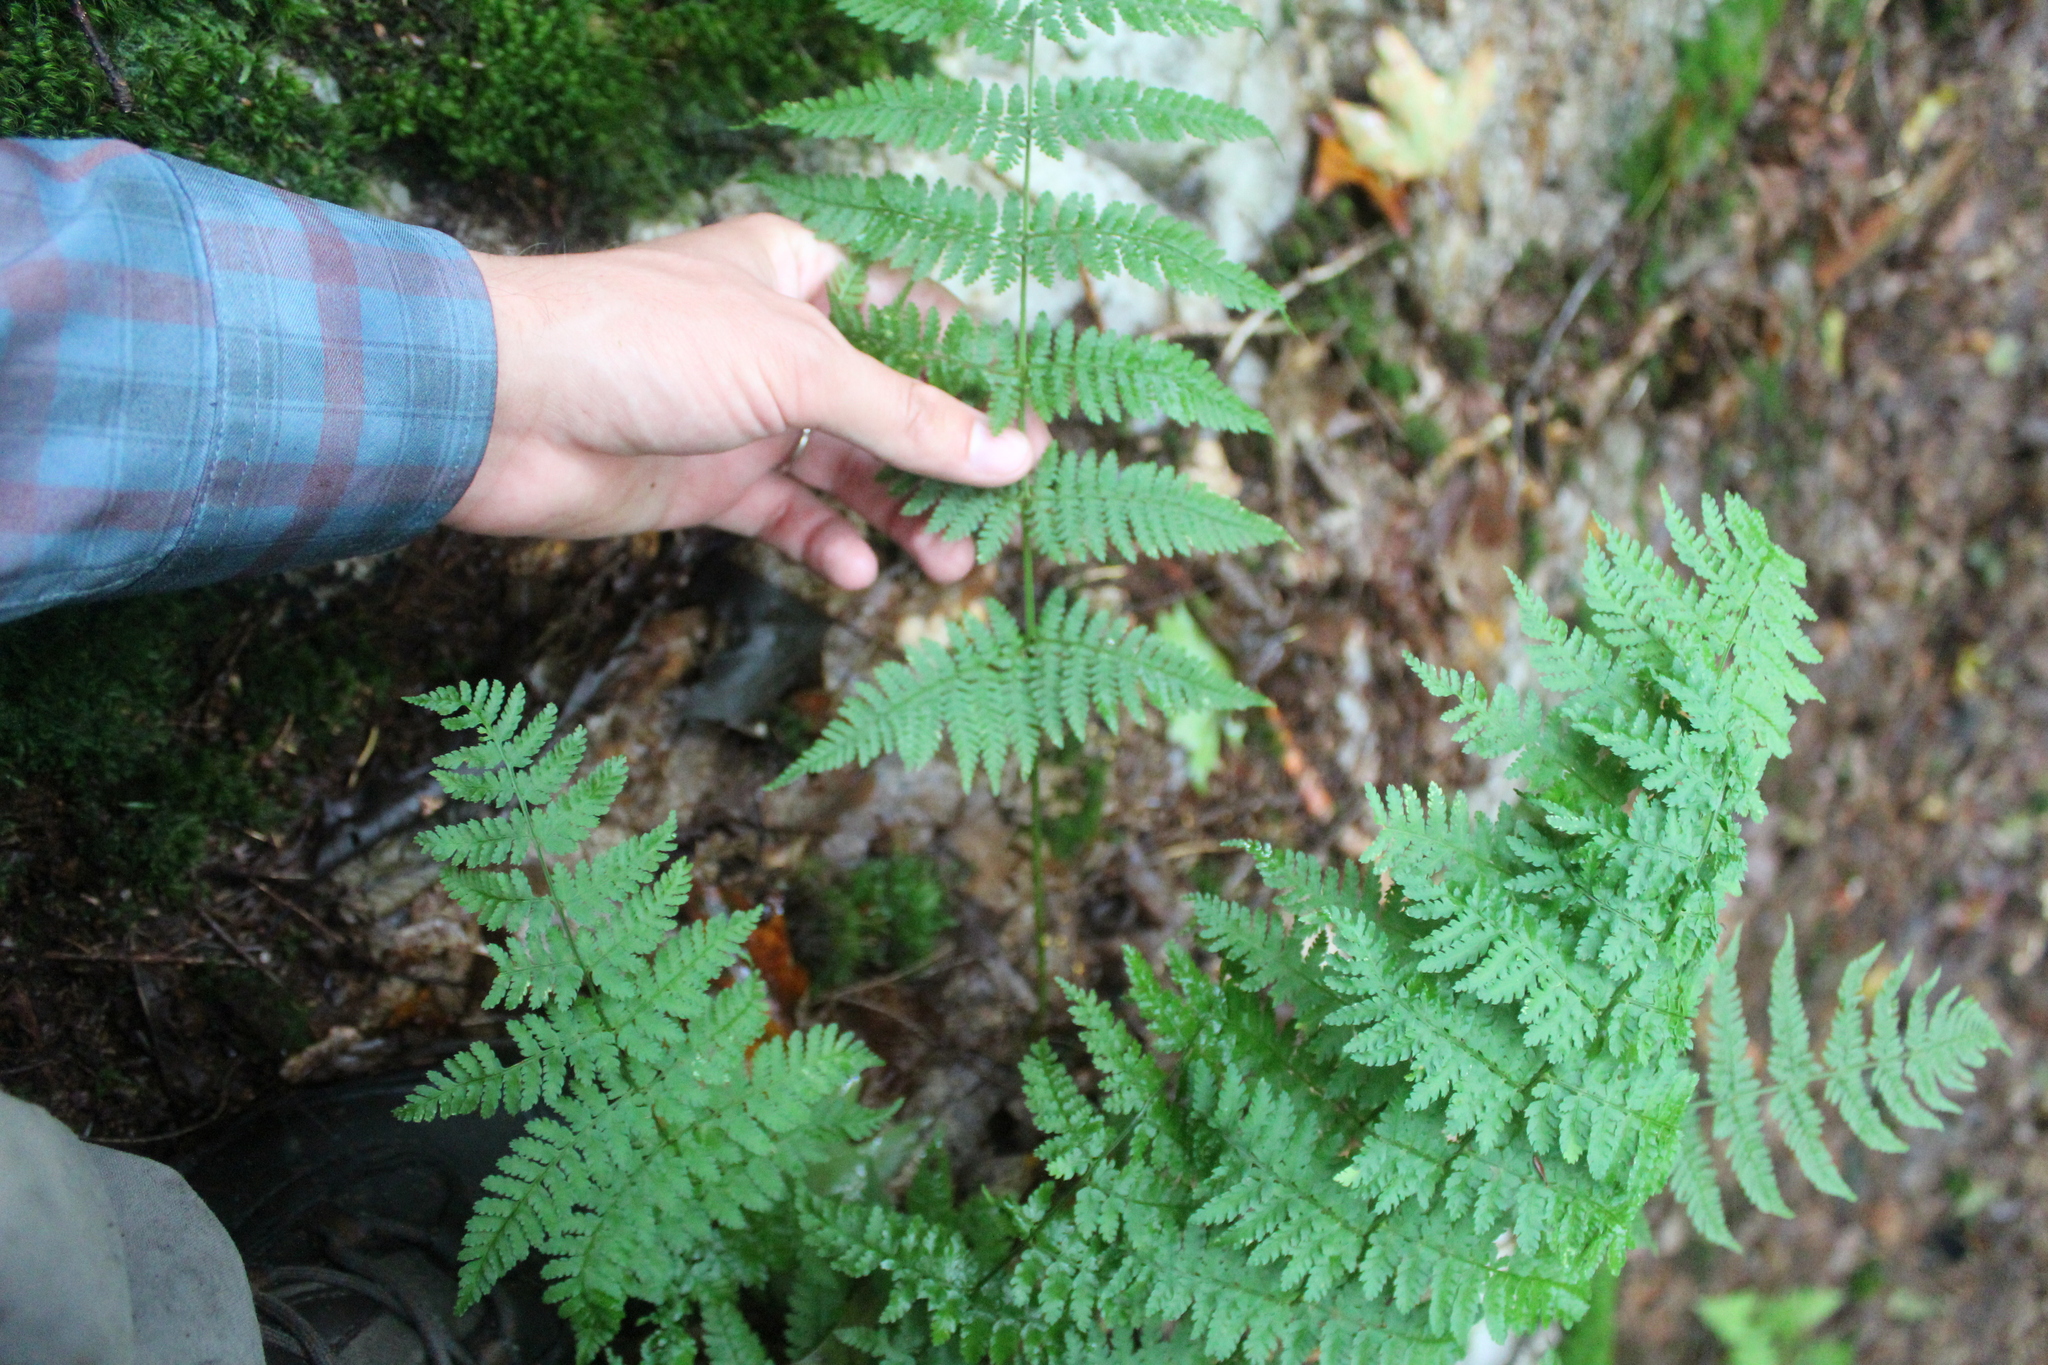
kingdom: Plantae
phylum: Tracheophyta
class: Polypodiopsida
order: Polypodiales
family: Dryopteridaceae
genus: Dryopteris
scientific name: Dryopteris intermedia
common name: Evergreen wood fern
